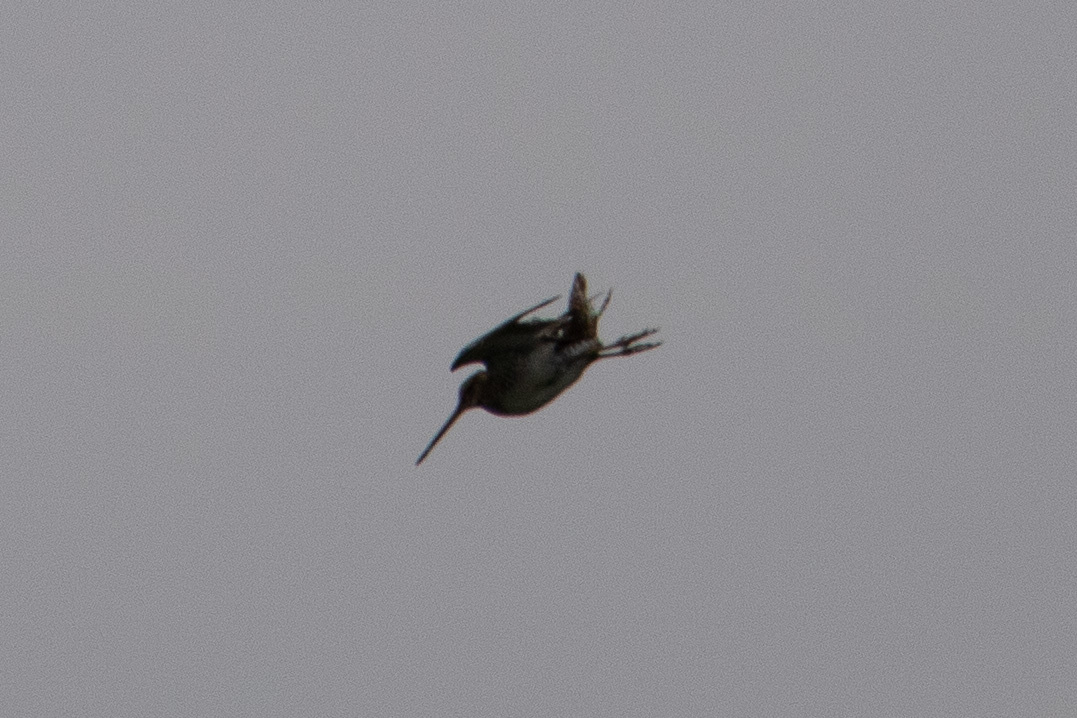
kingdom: Animalia
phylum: Chordata
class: Aves
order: Charadriiformes
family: Scolopacidae
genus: Gallinago
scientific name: Gallinago gallinago
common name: Common snipe
